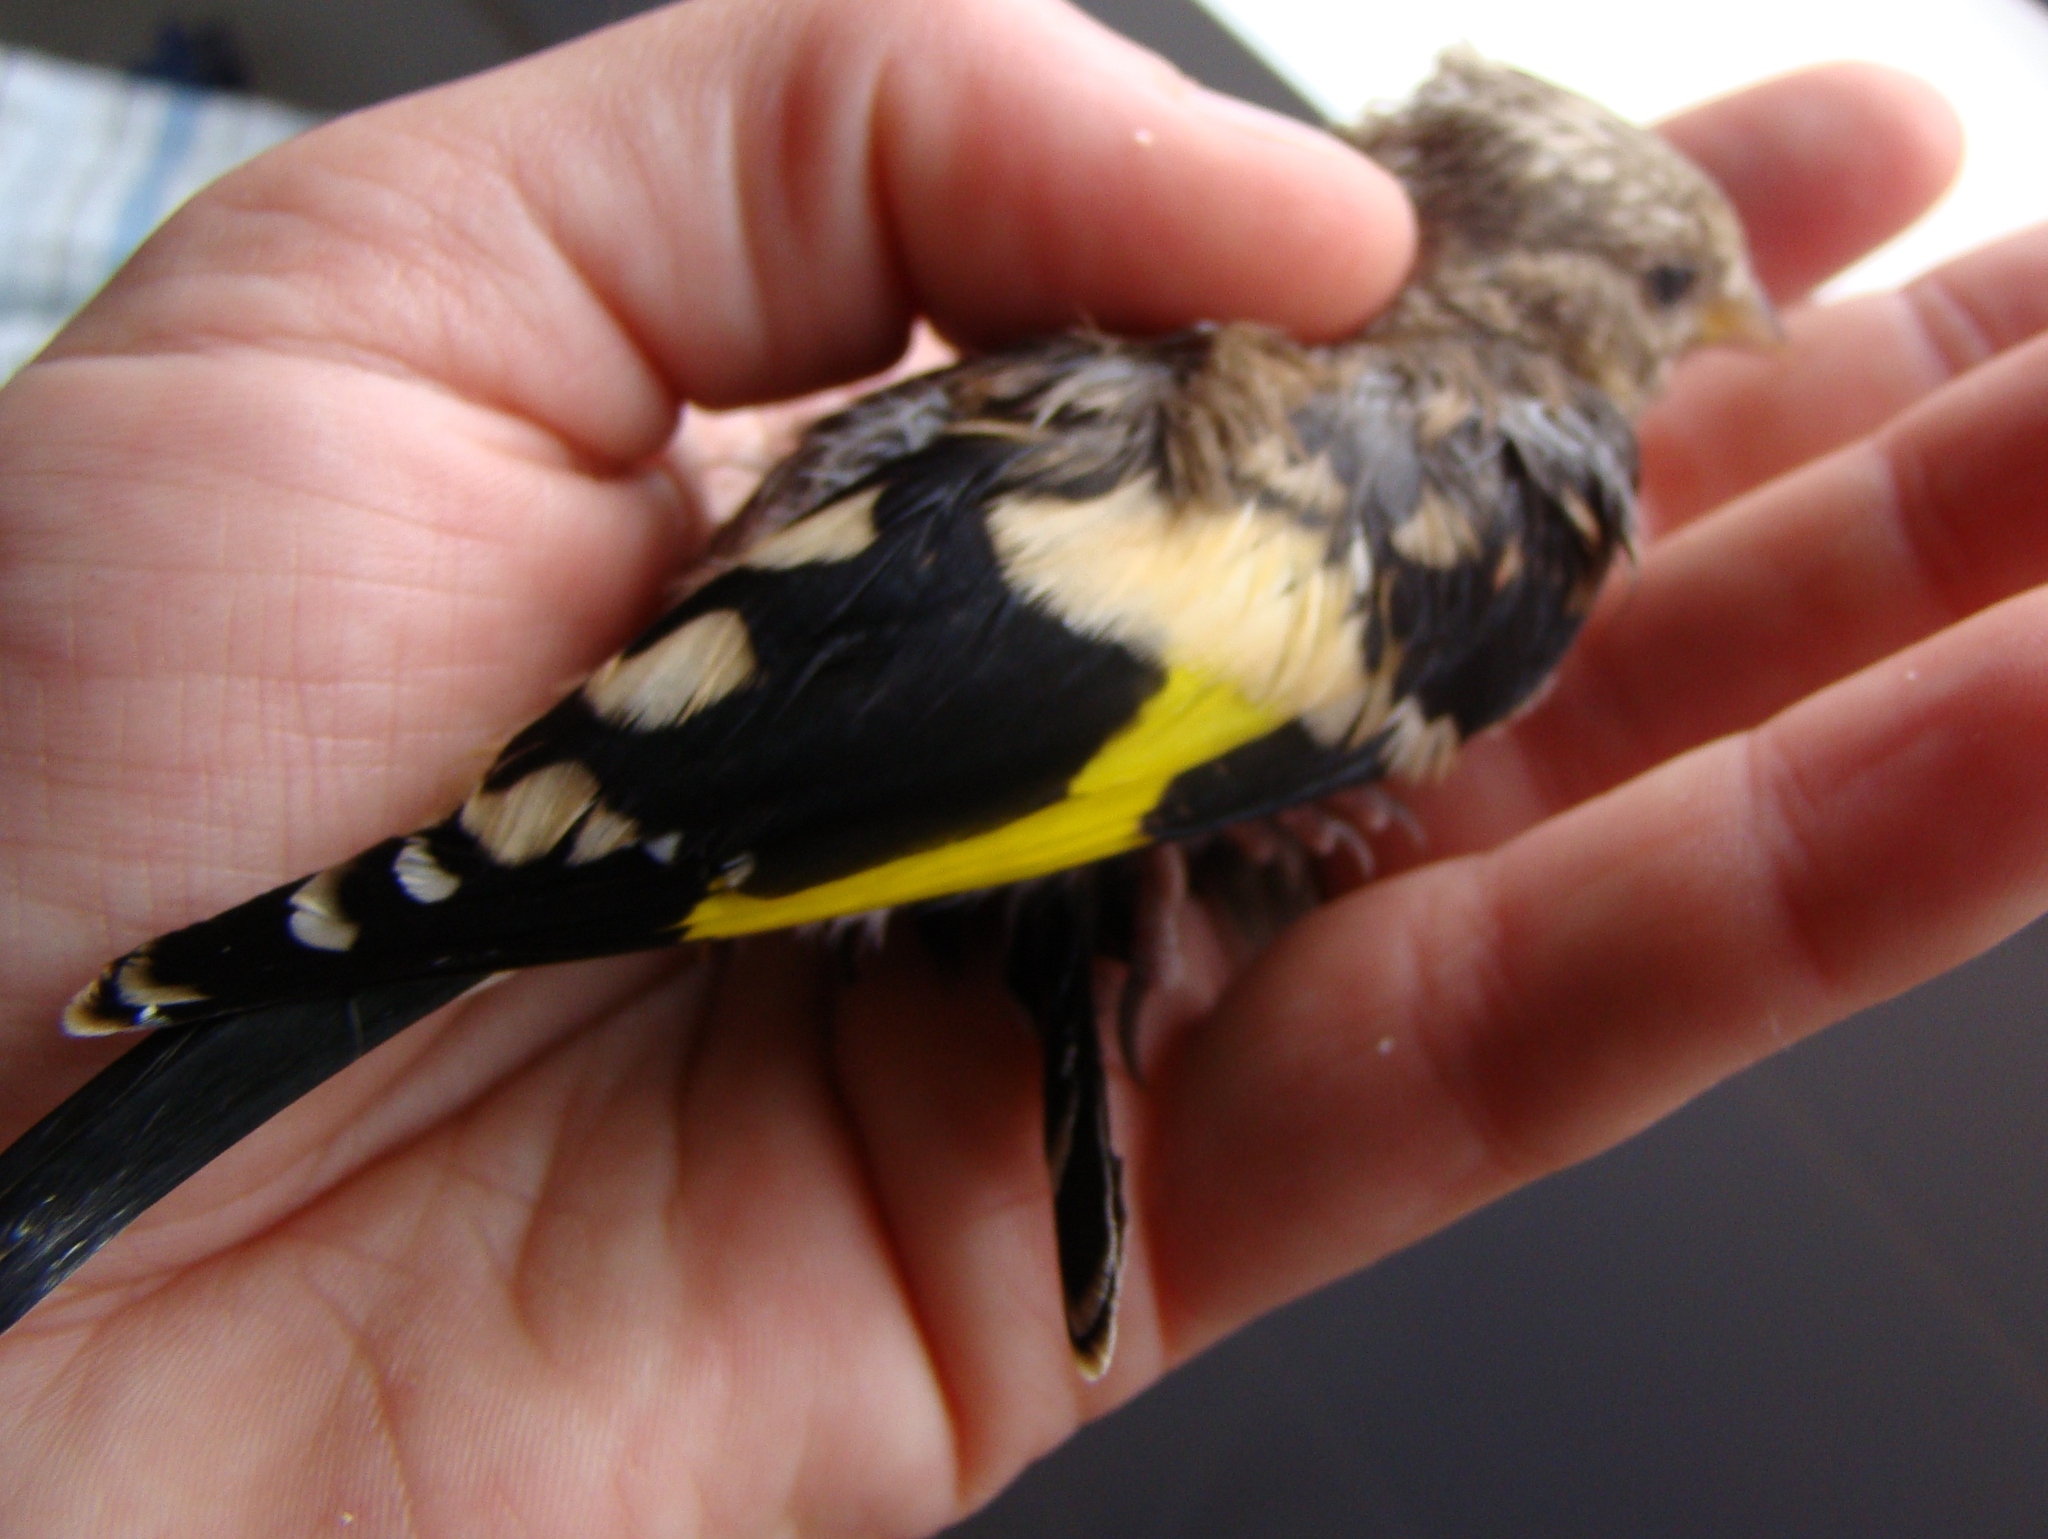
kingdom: Animalia
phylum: Chordata
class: Aves
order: Passeriformes
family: Fringillidae
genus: Carduelis
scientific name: Carduelis carduelis
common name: European goldfinch
